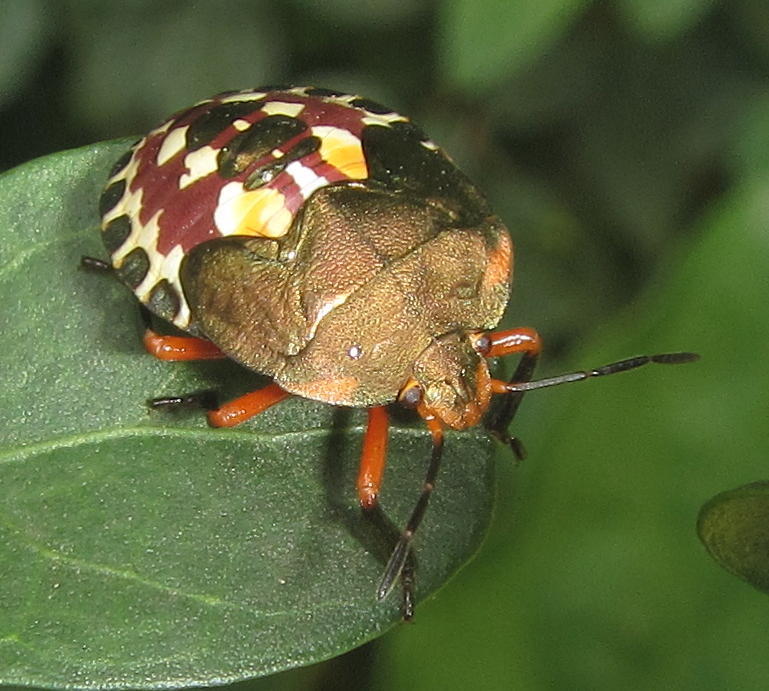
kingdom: Animalia
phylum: Arthropoda
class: Insecta
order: Hemiptera
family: Pentatomidae
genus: Caura
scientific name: Caura rufiventris
